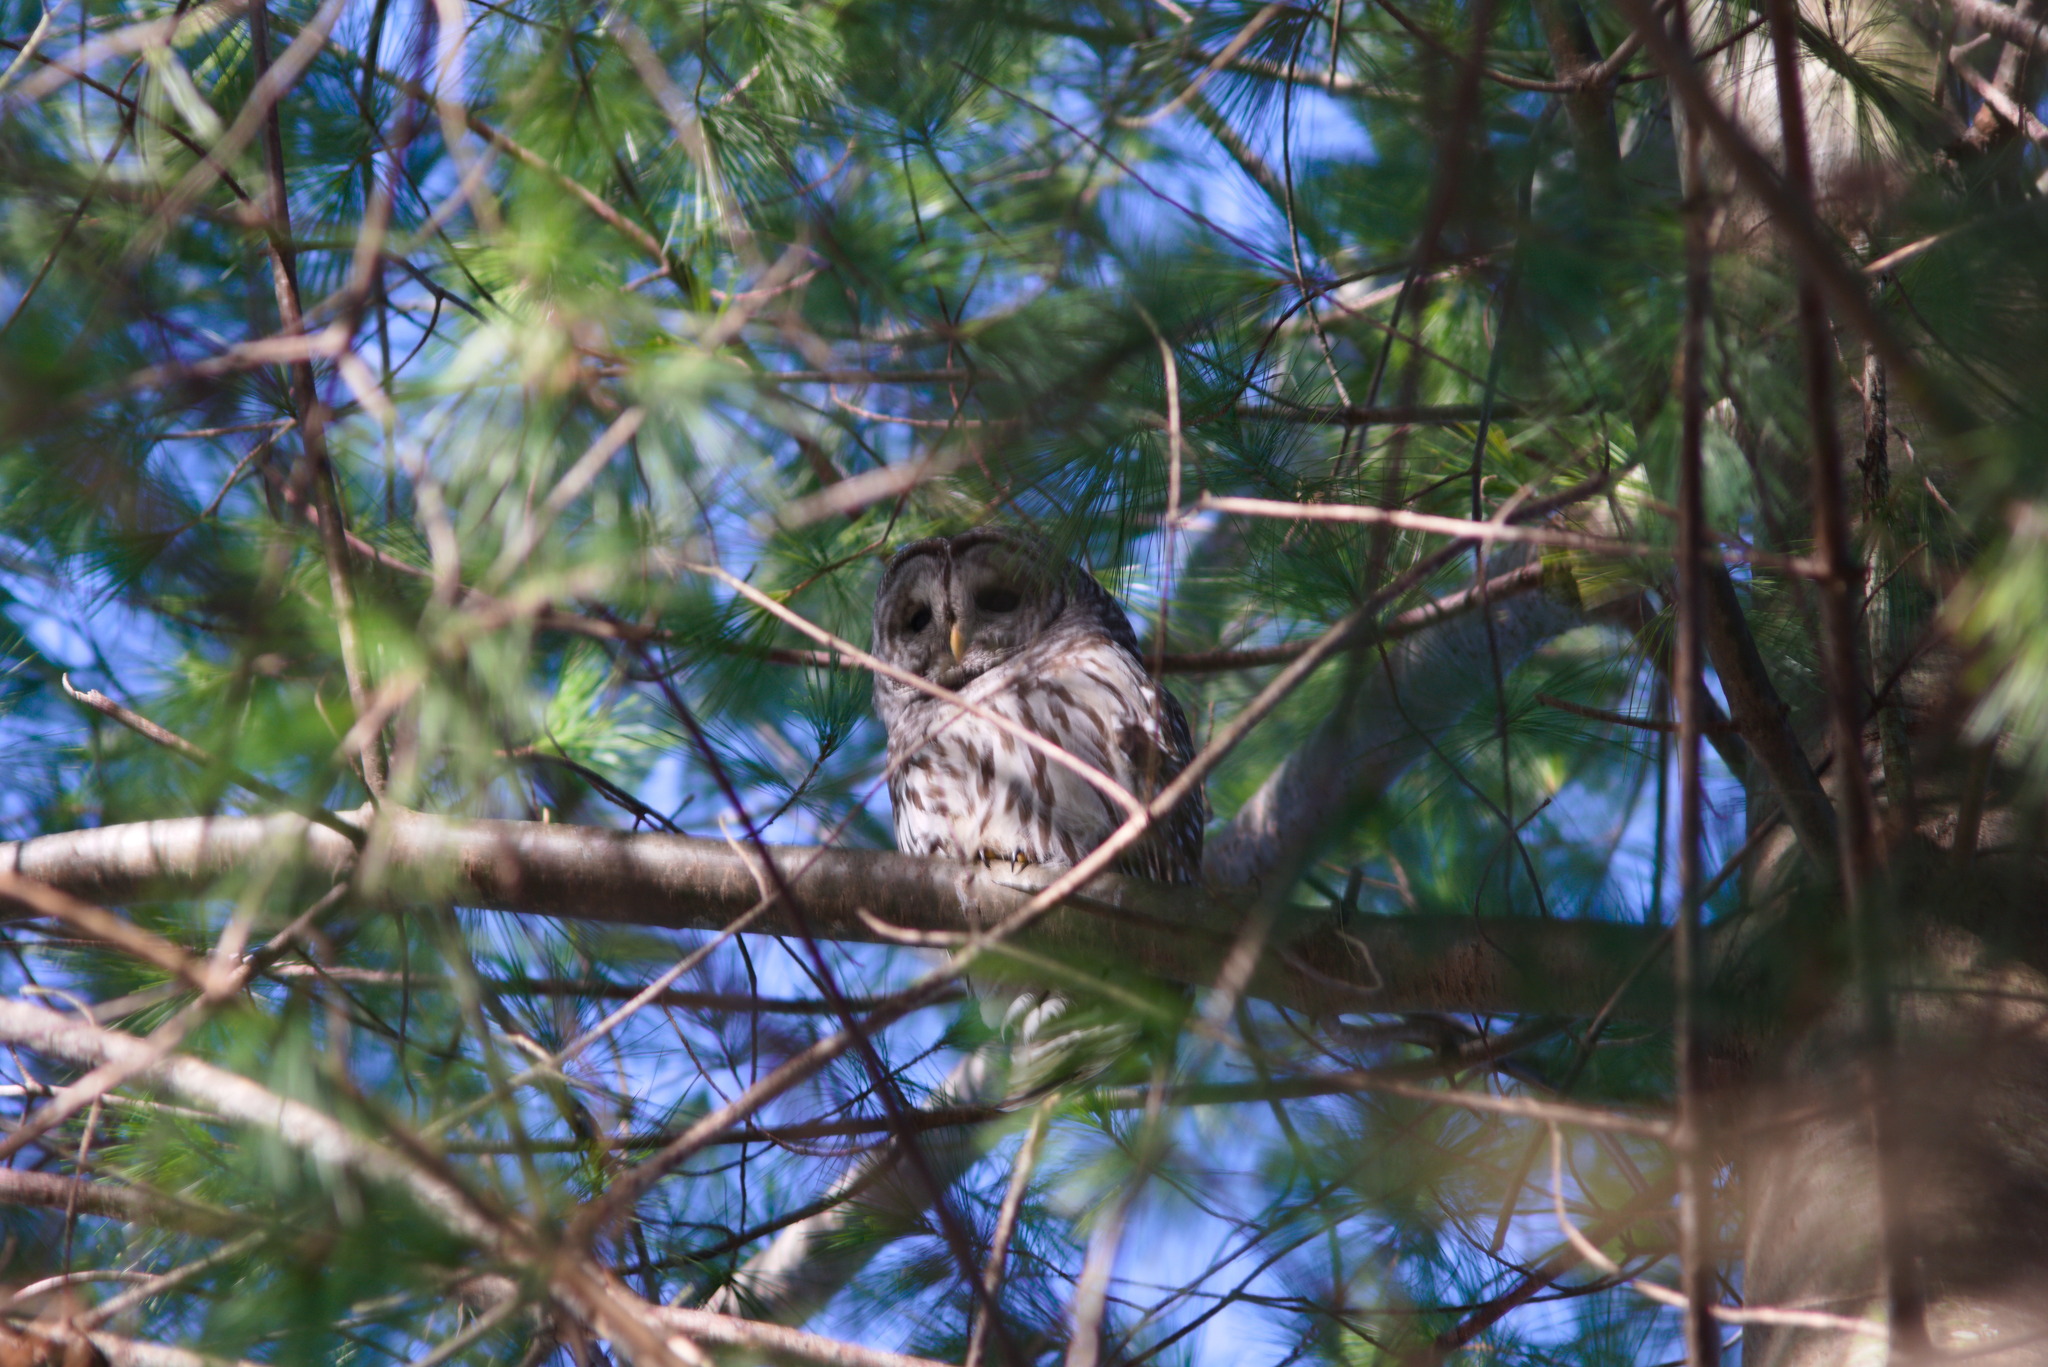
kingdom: Animalia
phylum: Chordata
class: Aves
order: Strigiformes
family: Strigidae
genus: Strix
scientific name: Strix varia
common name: Barred owl
